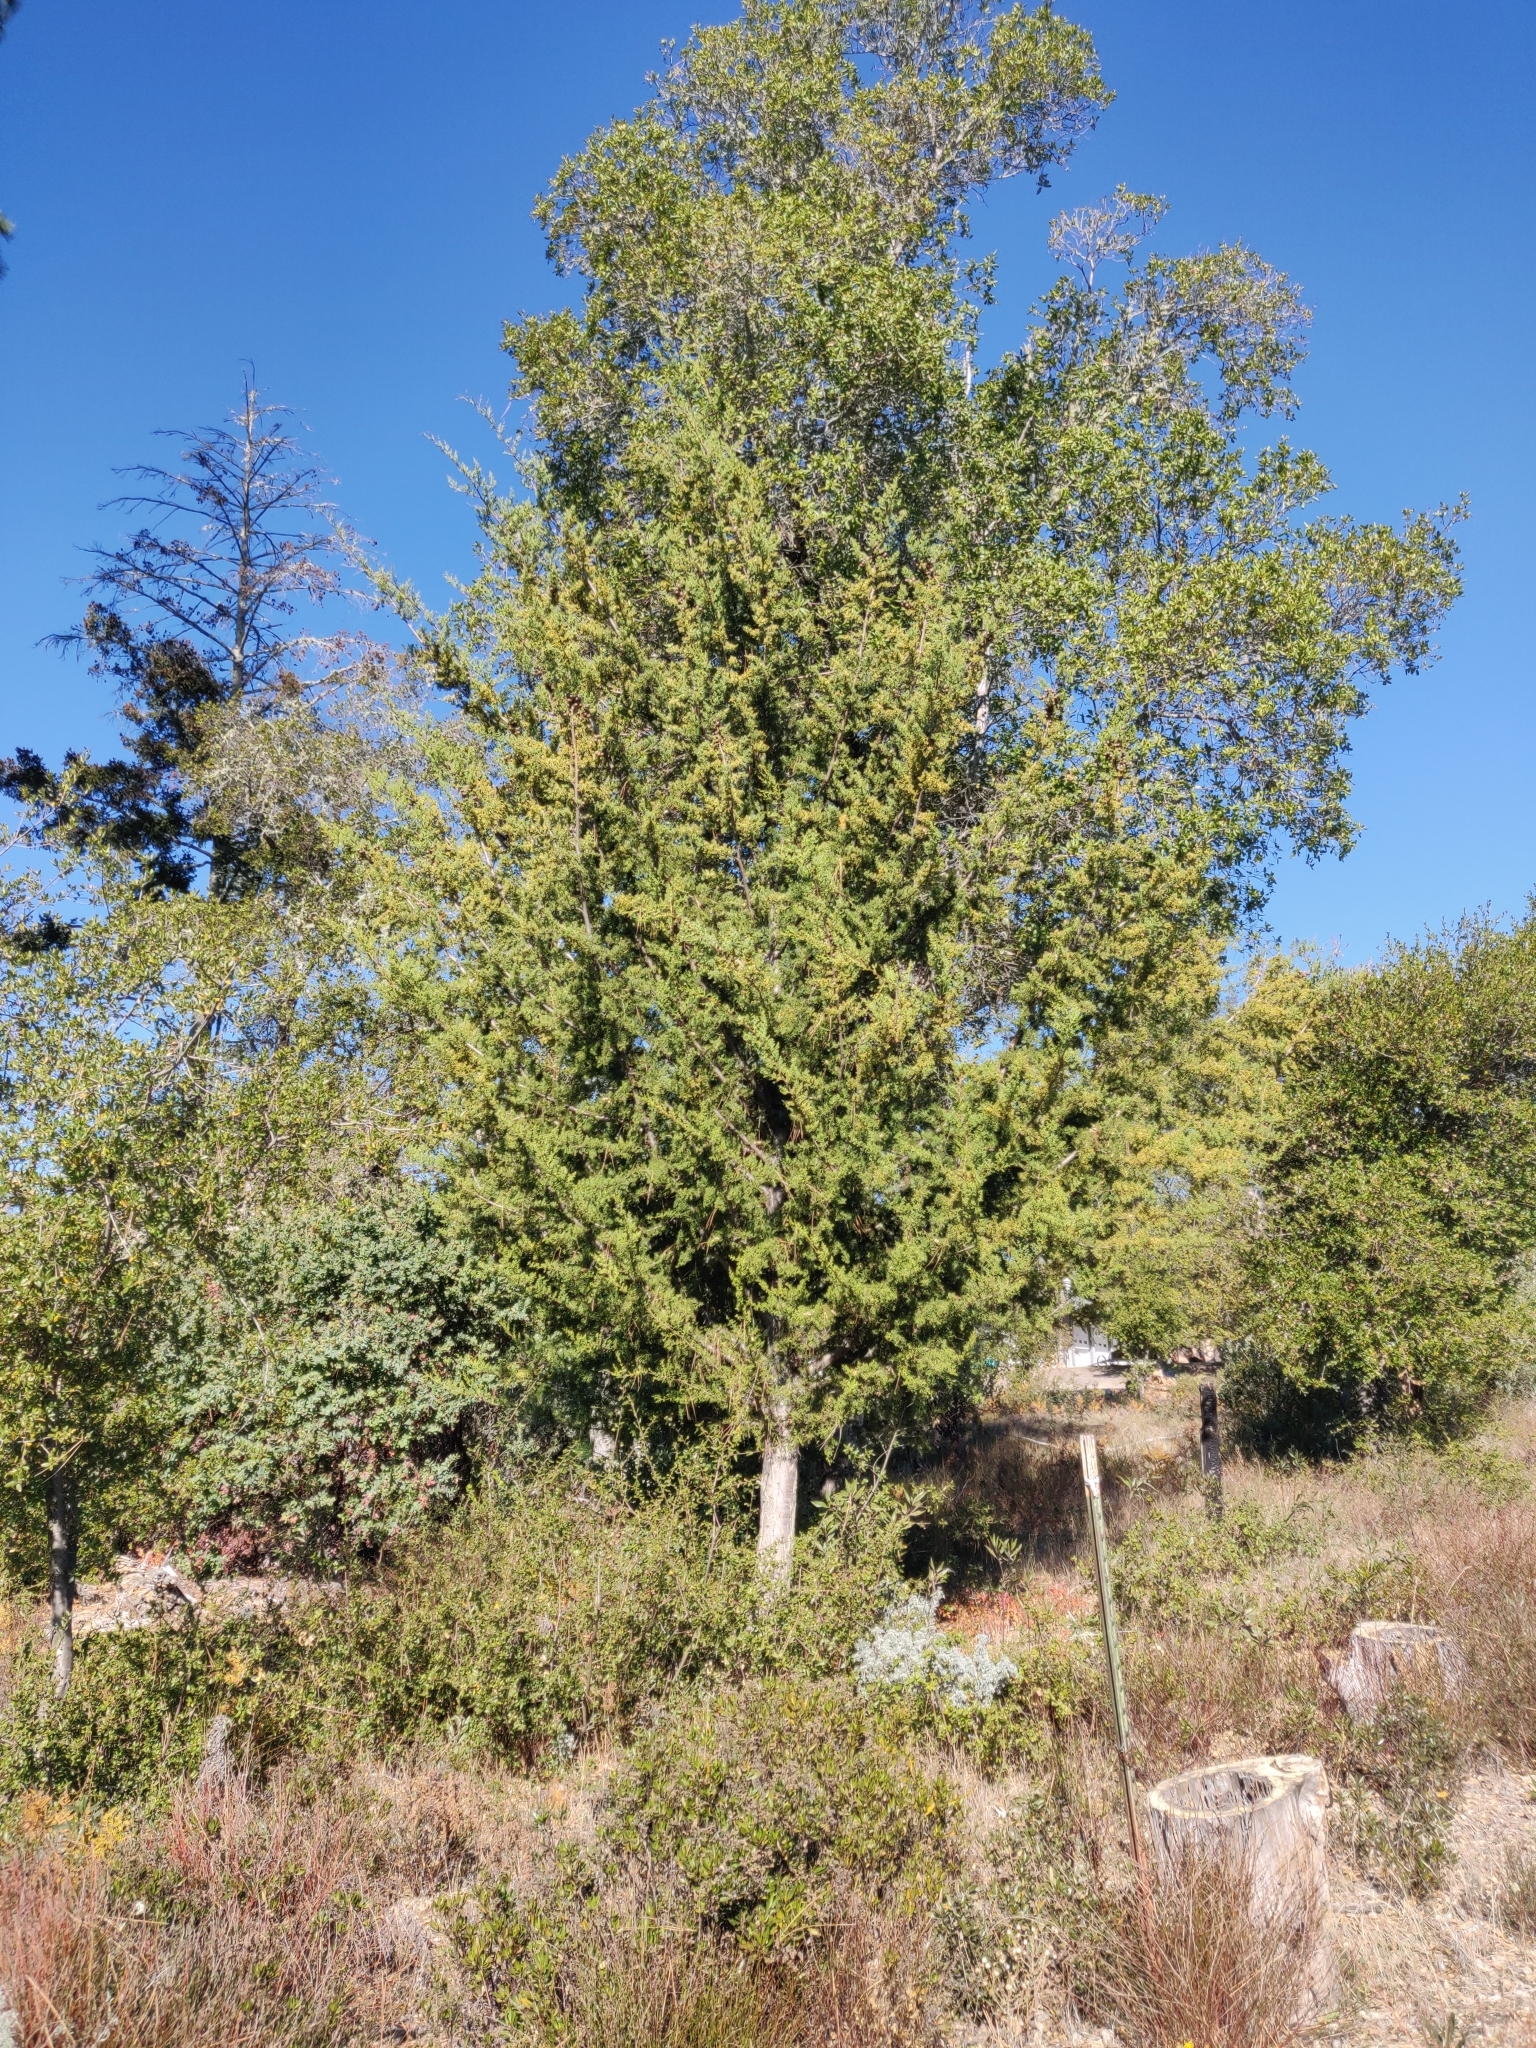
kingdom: Plantae
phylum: Tracheophyta
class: Pinopsida
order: Pinales
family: Cupressaceae
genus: Cupressus
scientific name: Cupressus goveniana
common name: Gowen cypress
